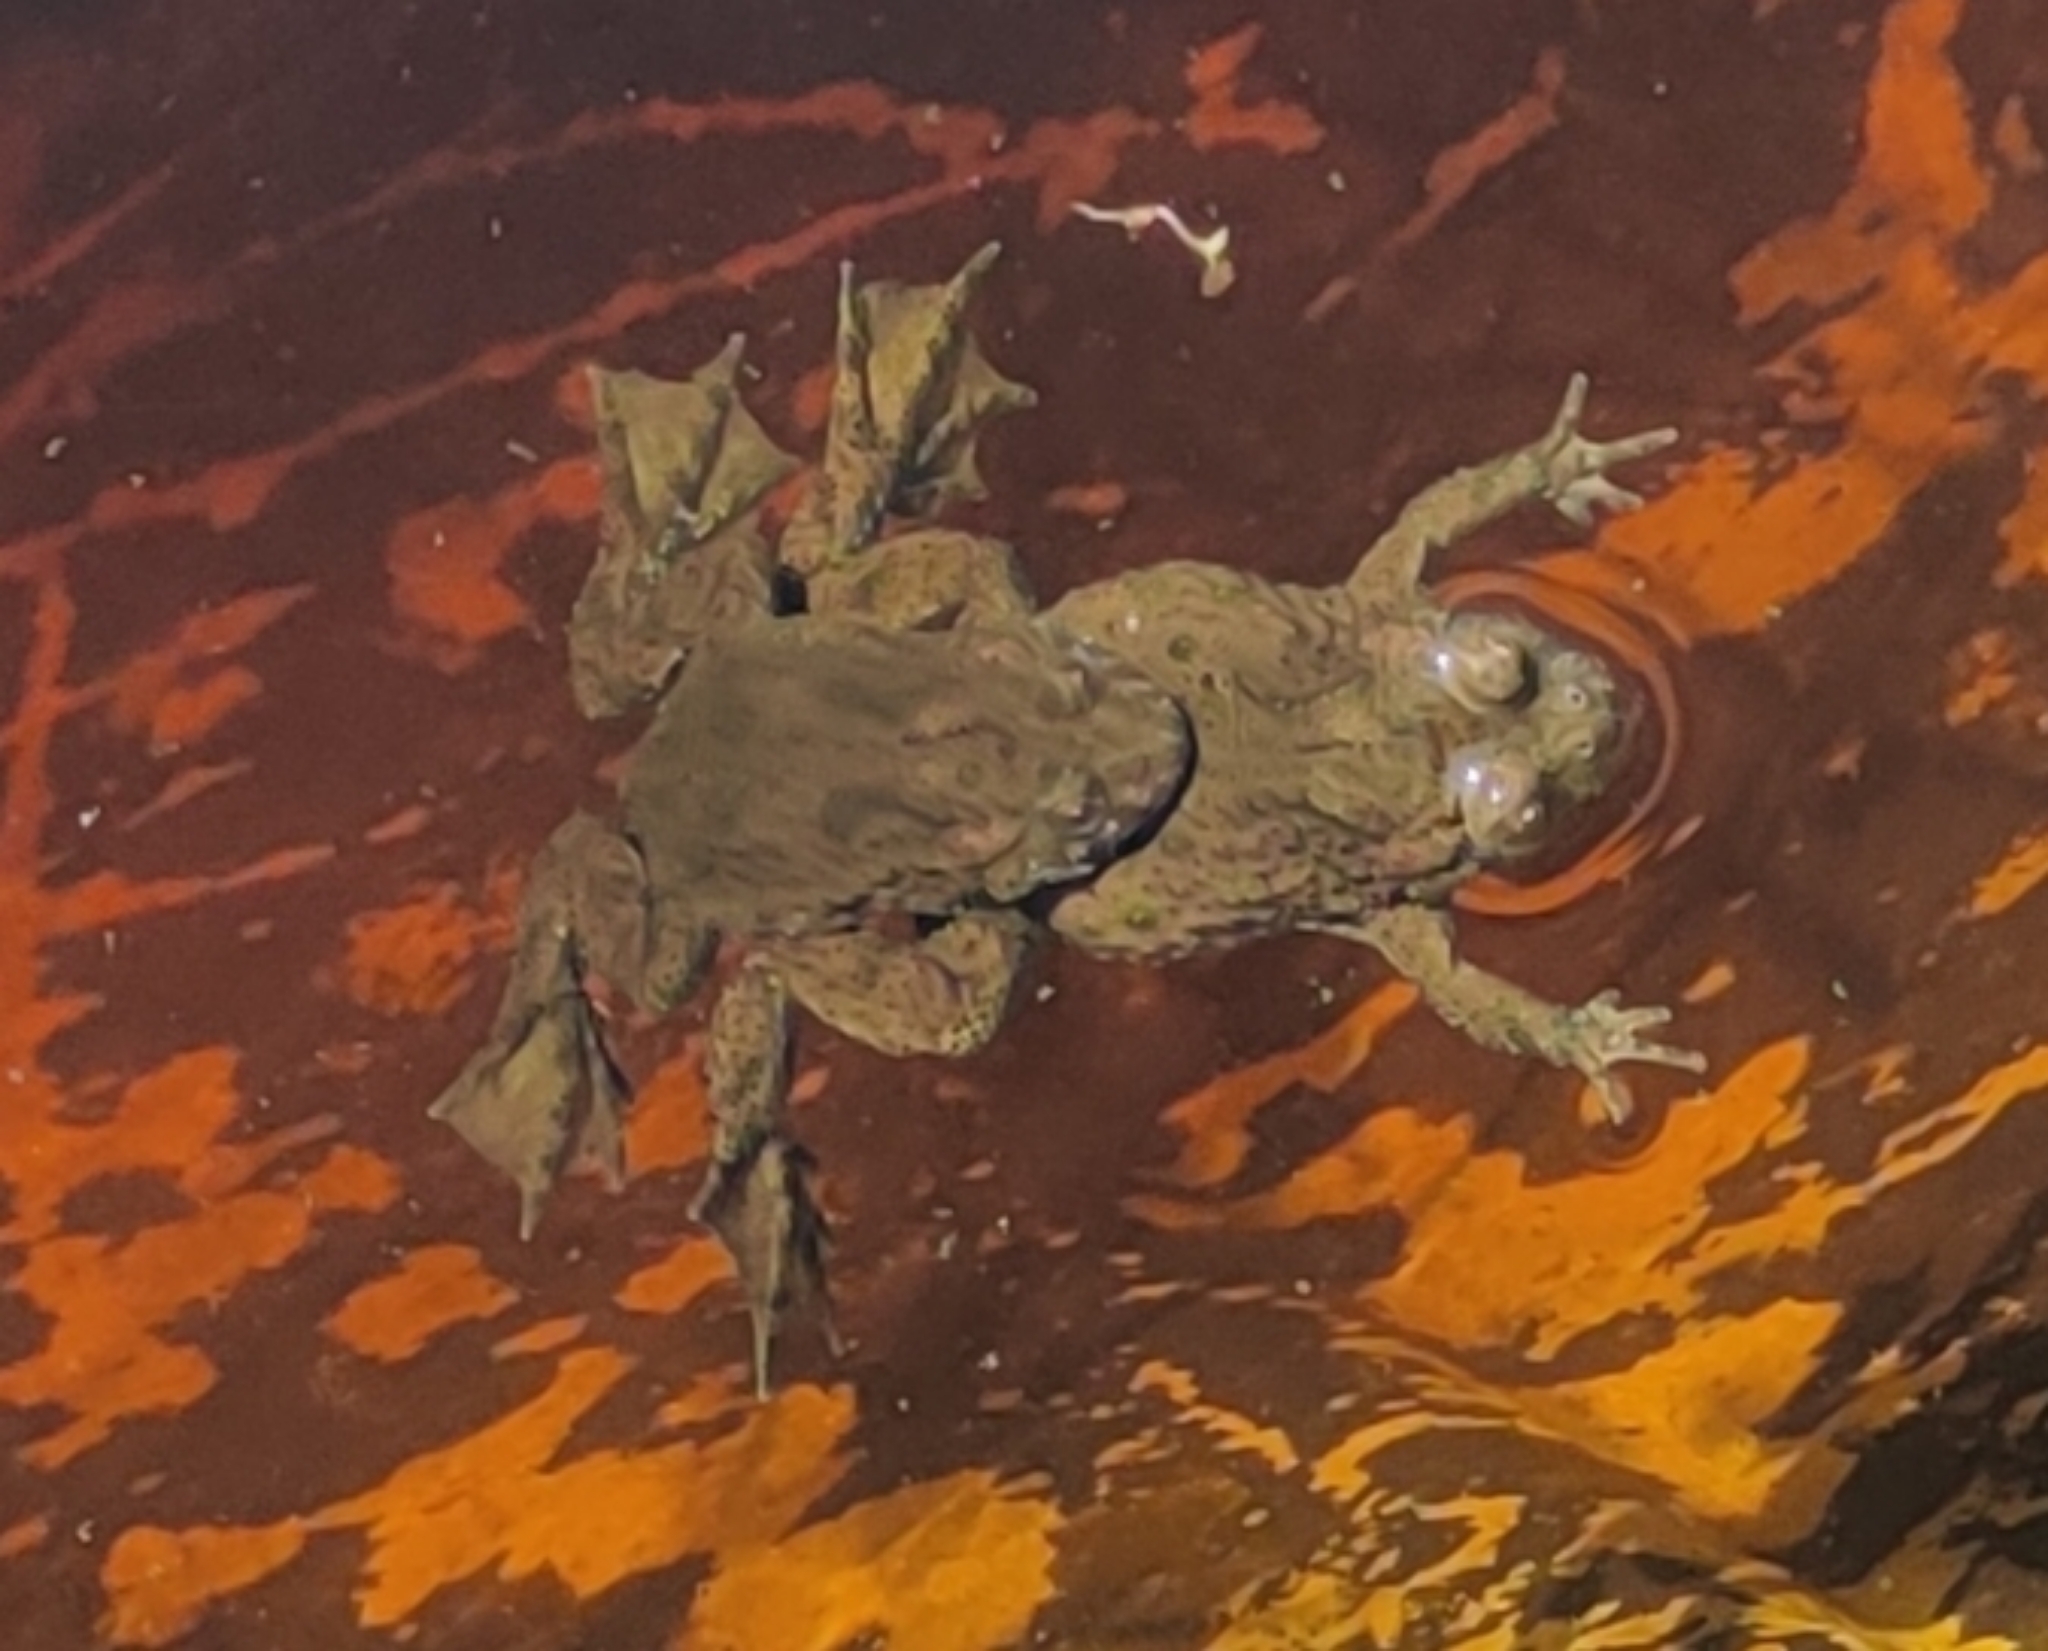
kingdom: Animalia
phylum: Chordata
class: Amphibia
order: Anura
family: Bombinatoridae
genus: Bombina
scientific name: Bombina bombina
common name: Fire-bellied toad
